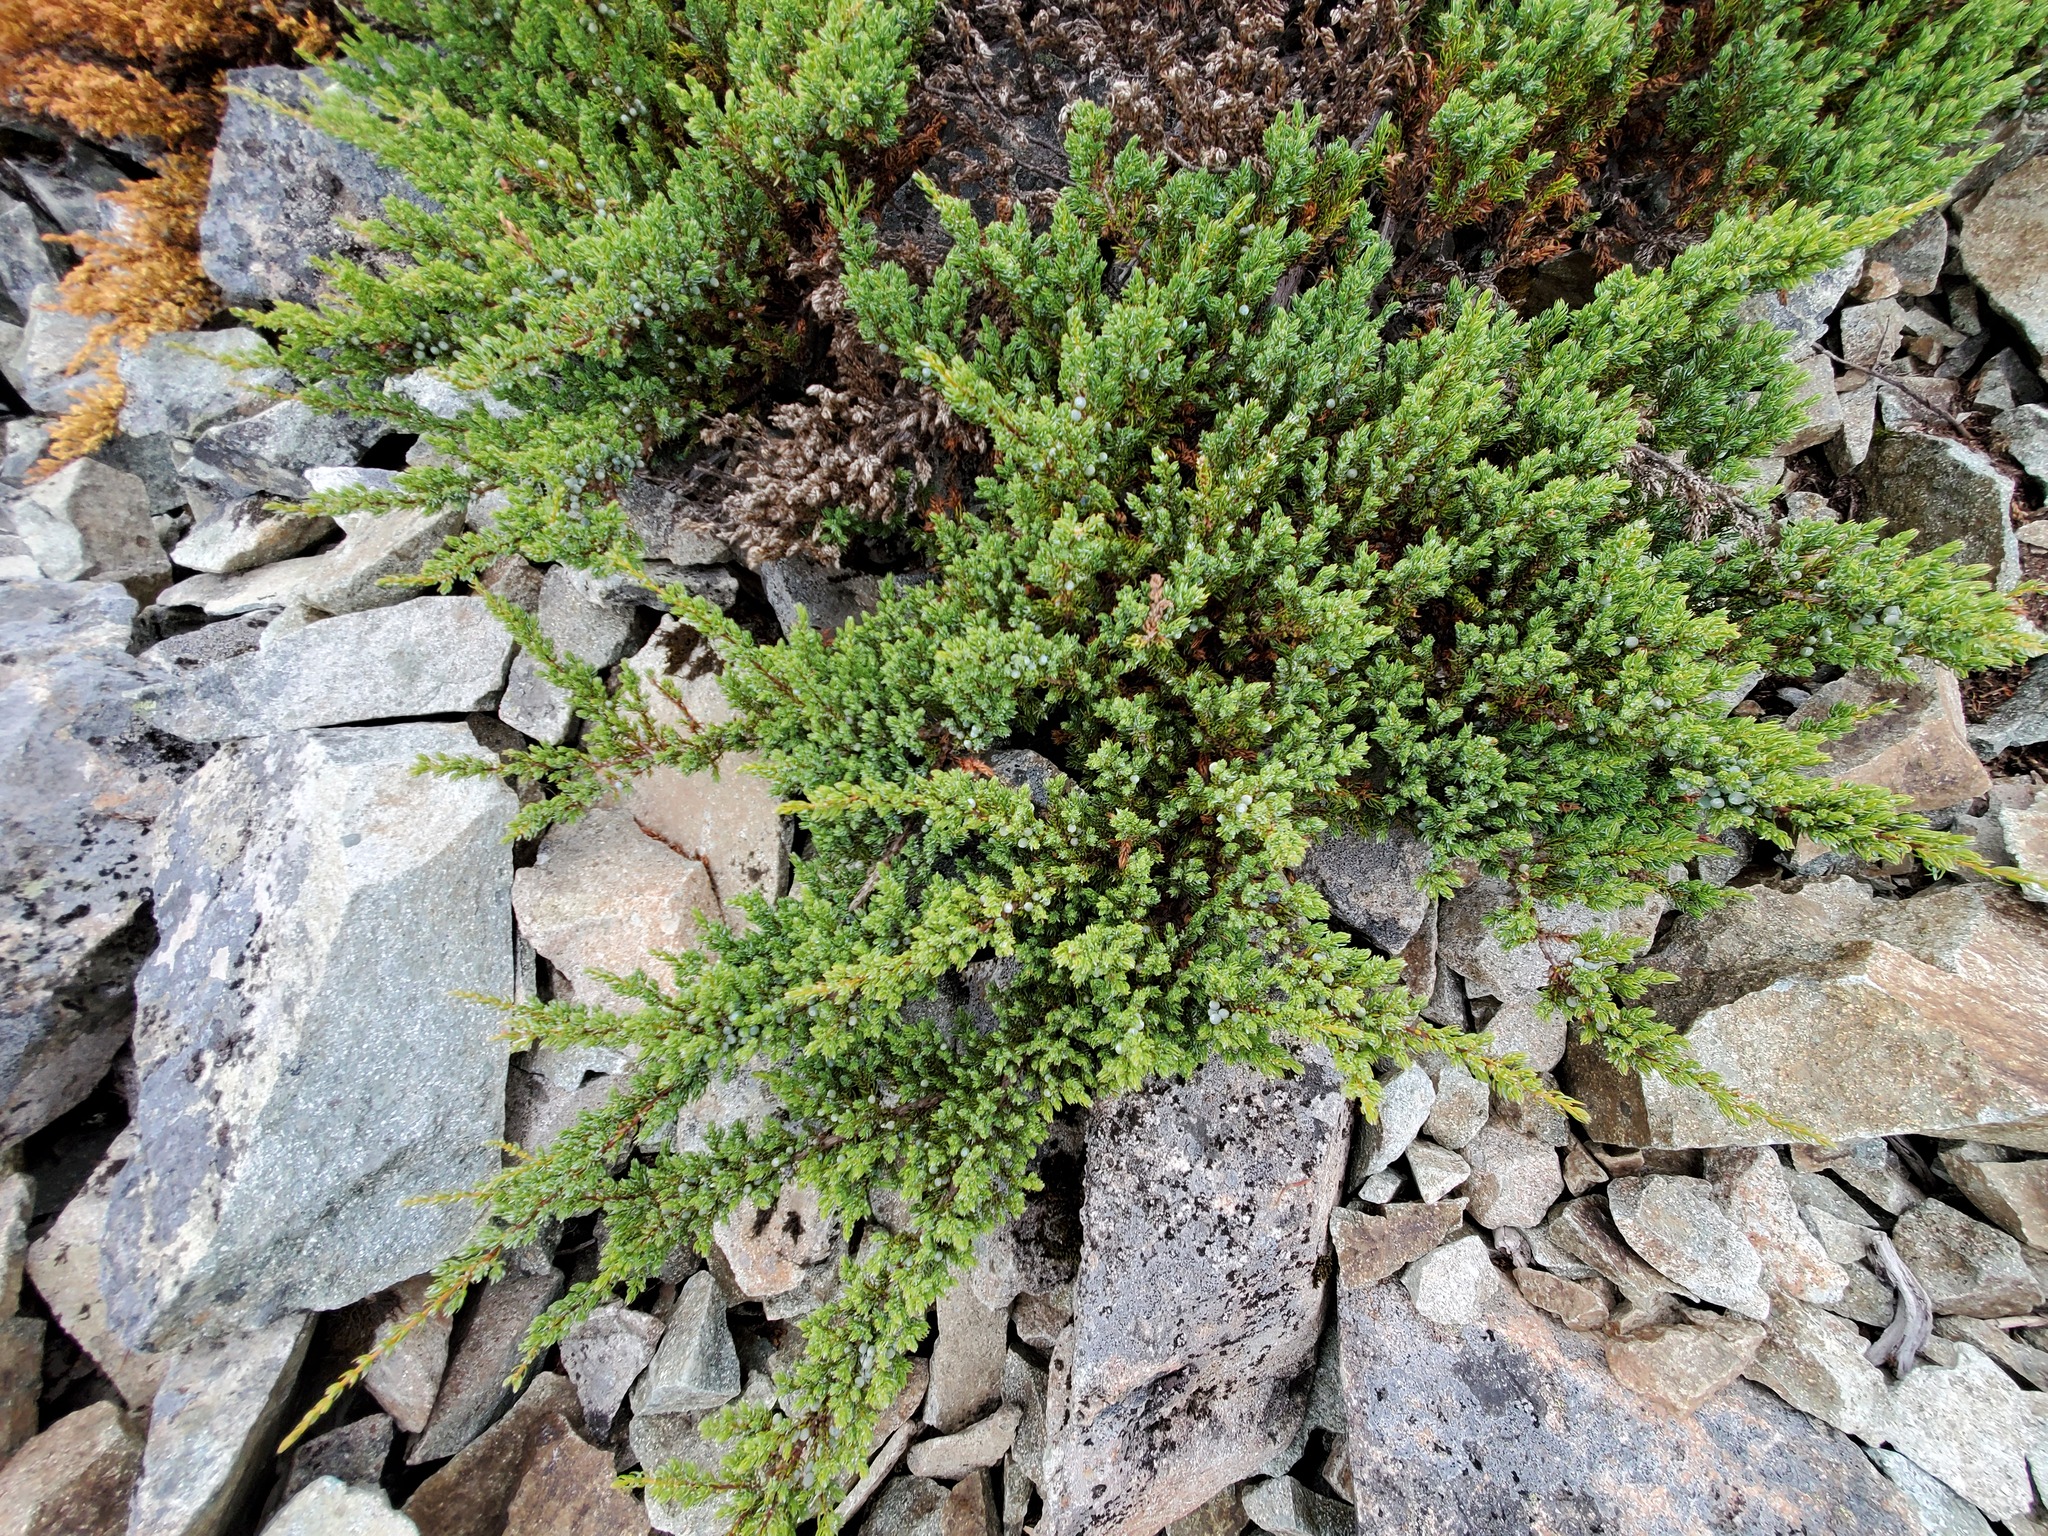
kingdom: Plantae
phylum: Tracheophyta
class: Pinopsida
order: Pinales
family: Cupressaceae
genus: Juniperus
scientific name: Juniperus communis
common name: Common juniper
